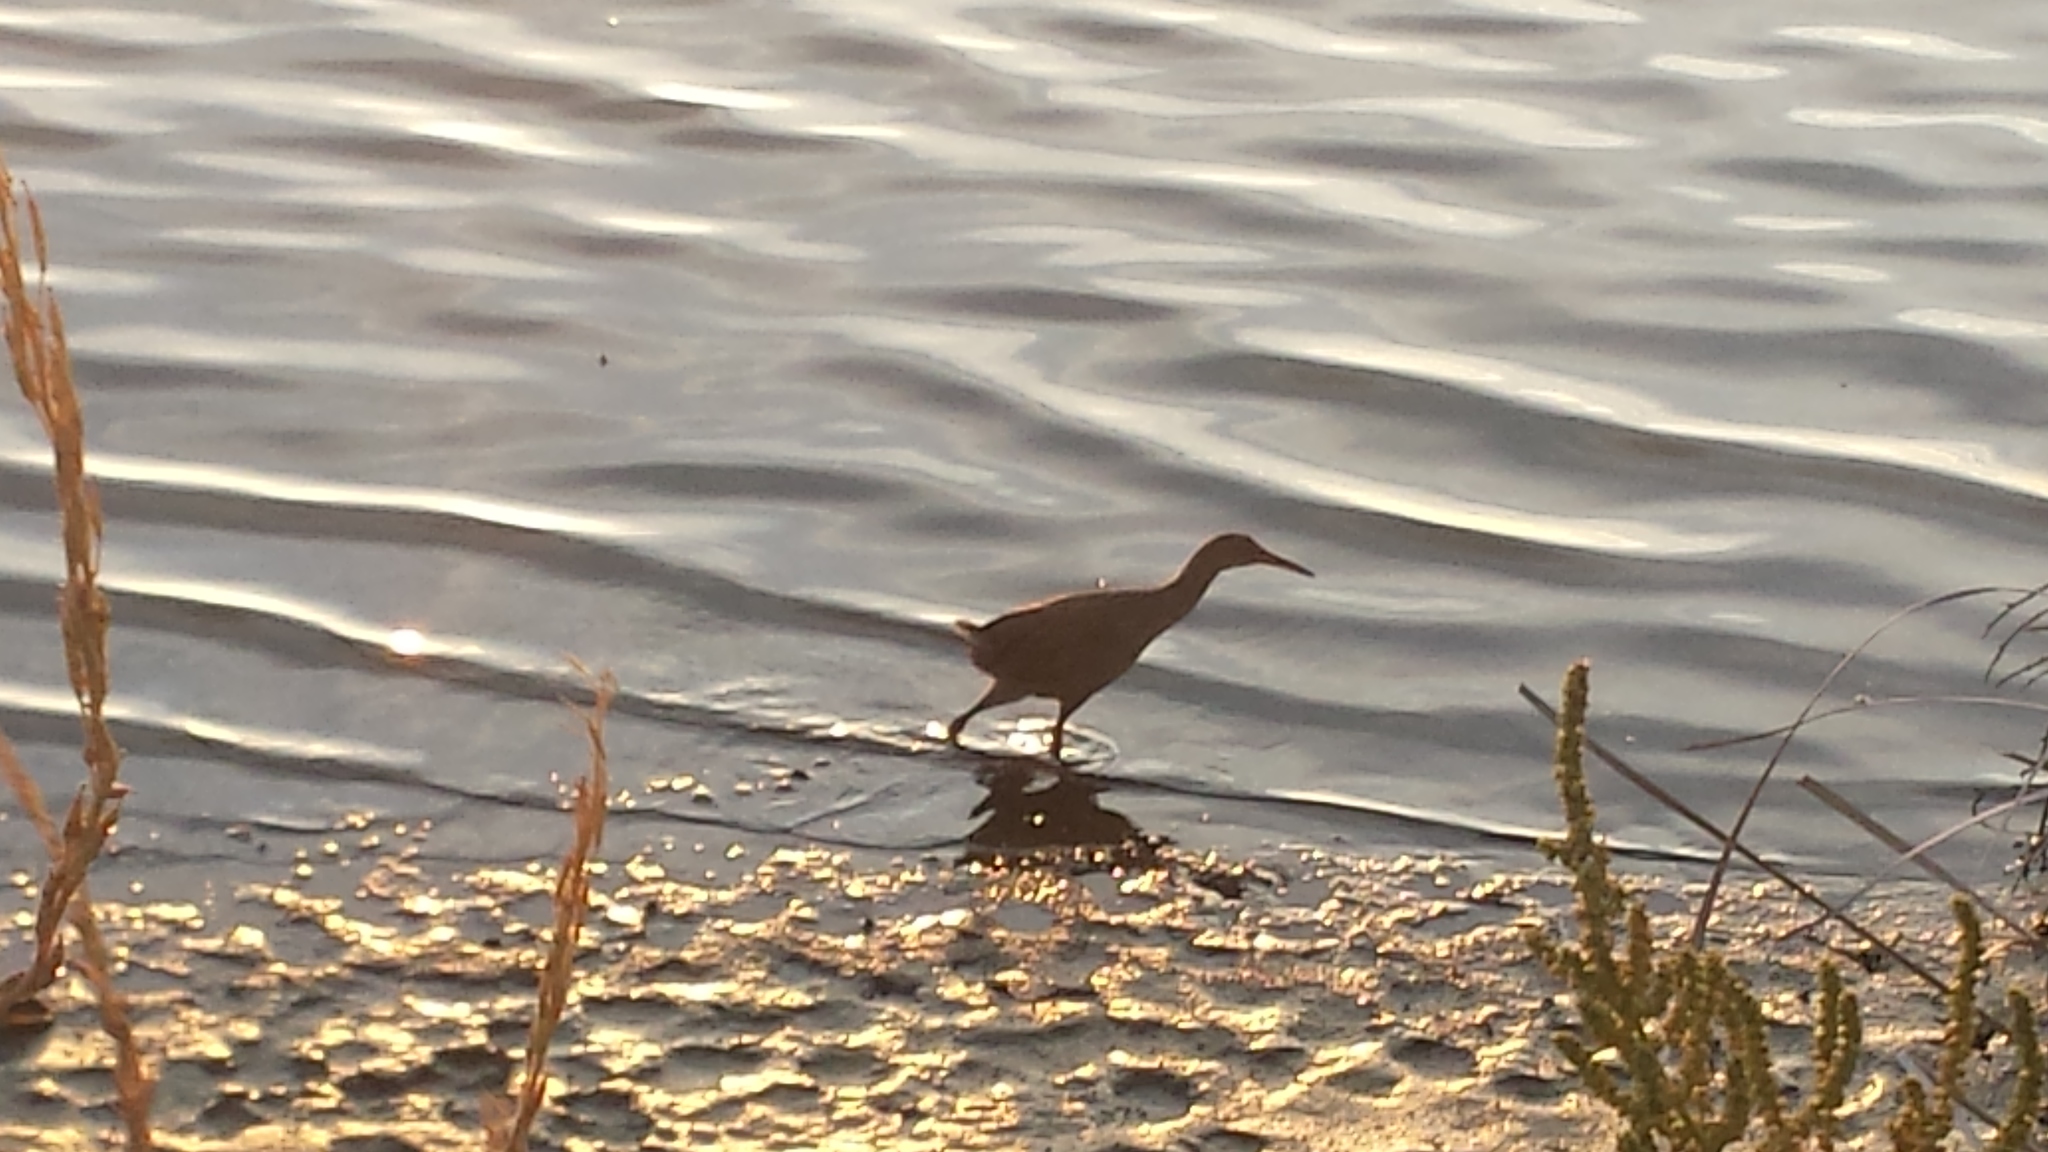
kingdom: Animalia
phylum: Chordata
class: Aves
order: Gruiformes
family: Rallidae
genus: Rallus
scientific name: Rallus obsoletus
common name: Ridgway's rail
